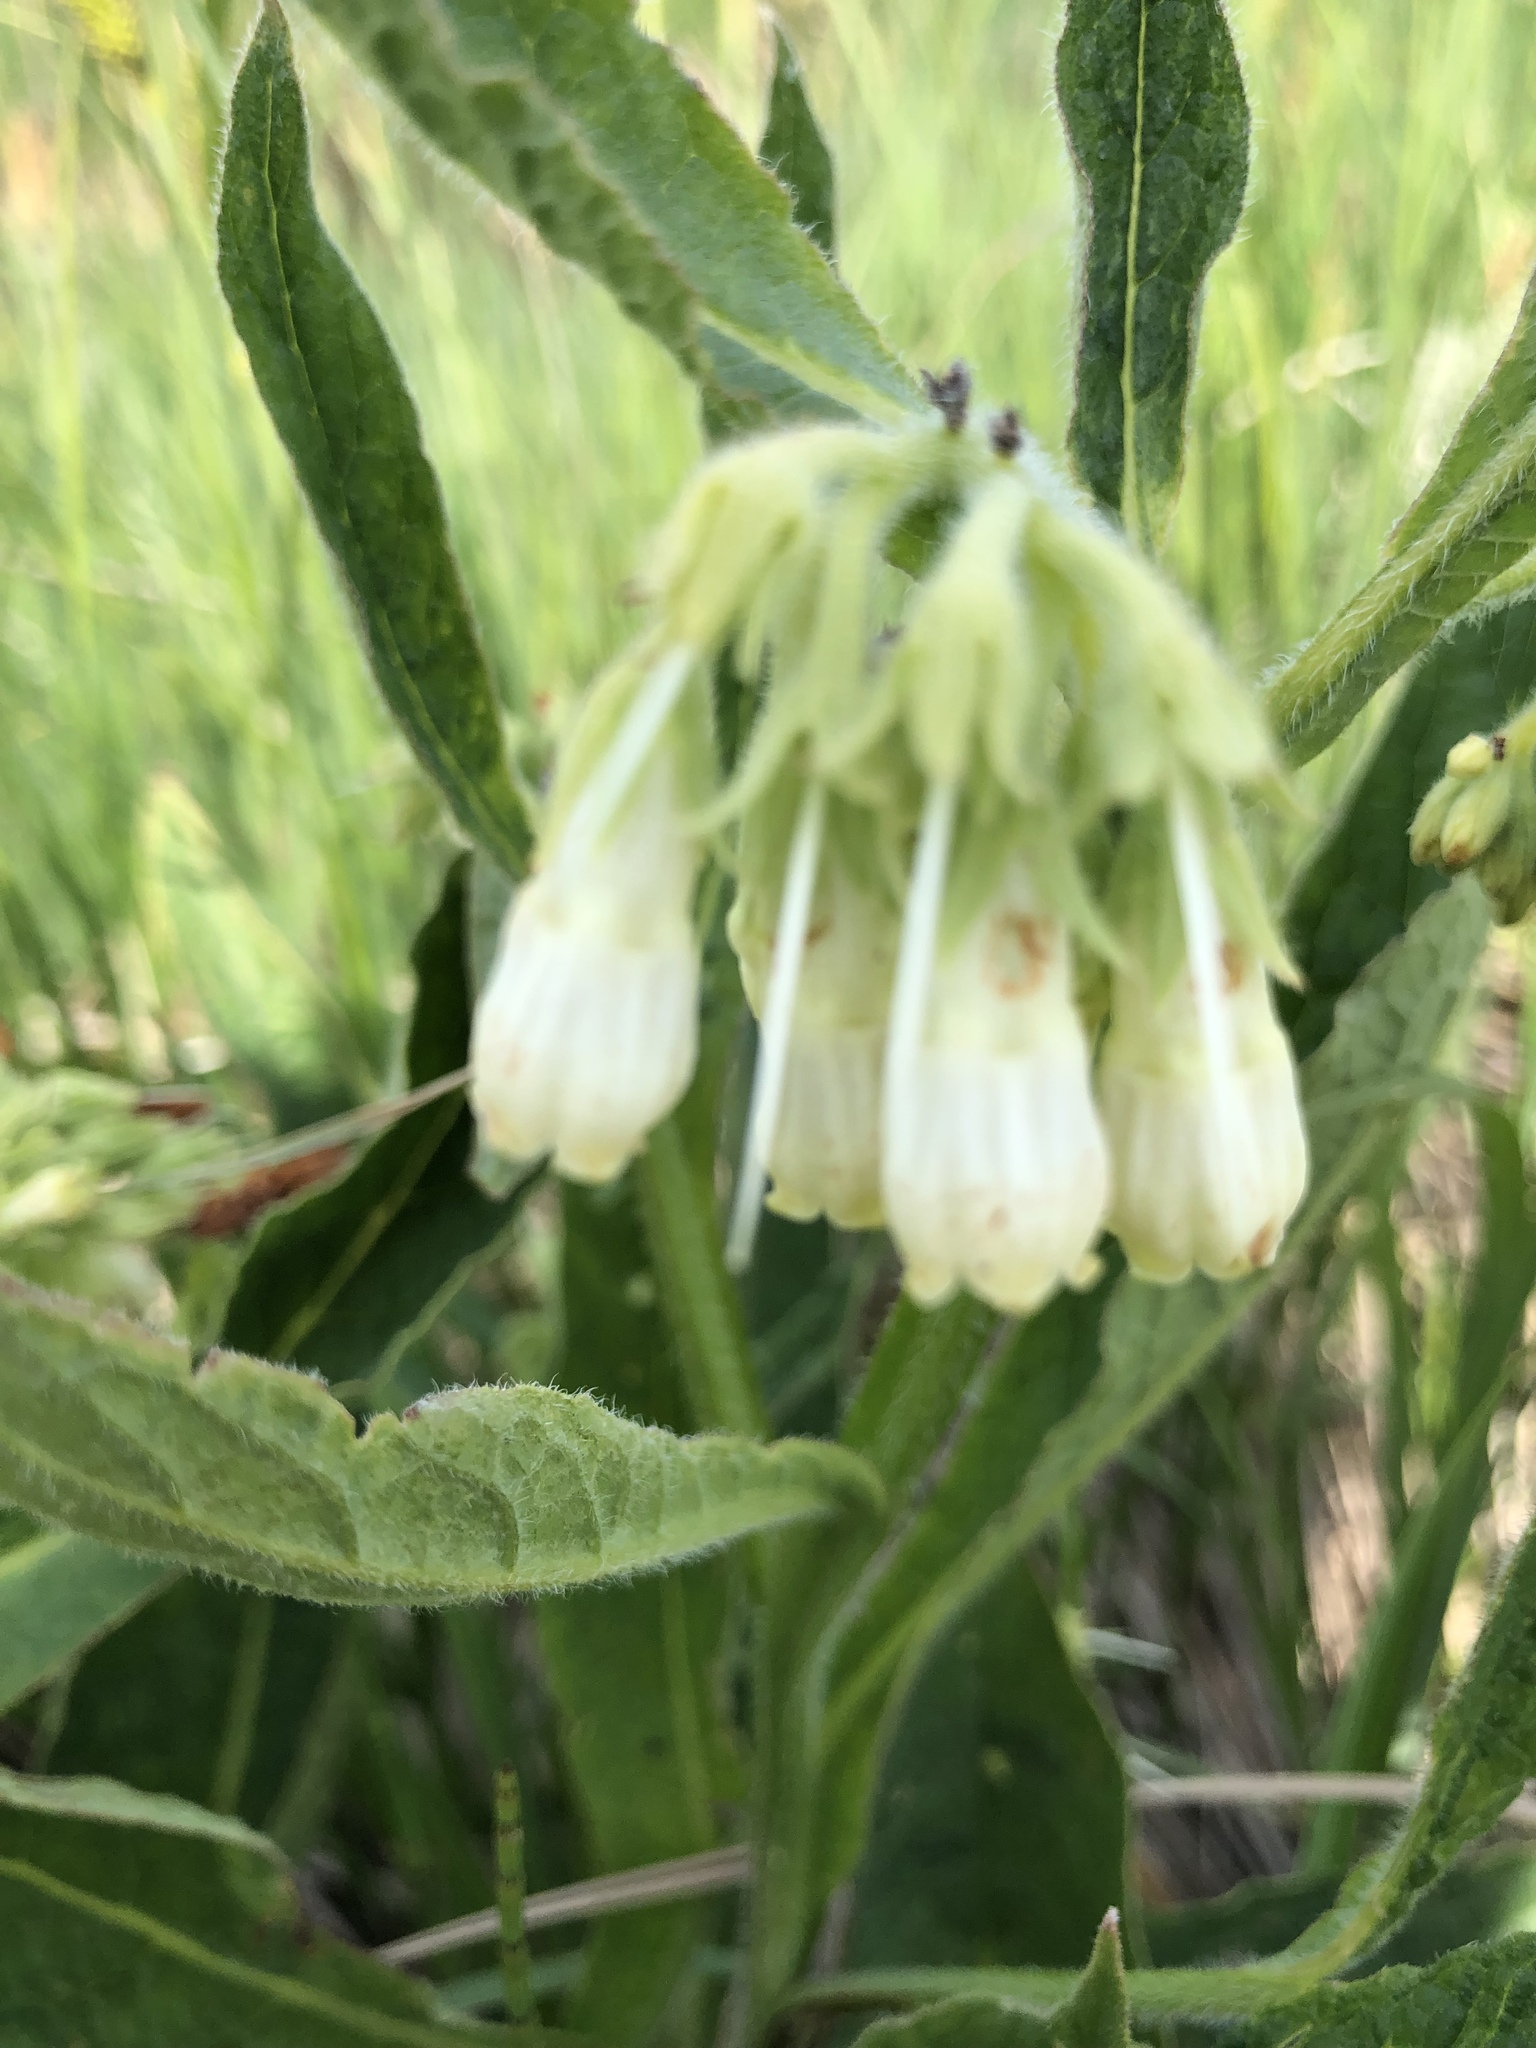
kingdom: Plantae
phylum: Tracheophyta
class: Magnoliopsida
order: Boraginales
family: Boraginaceae
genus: Symphytum
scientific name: Symphytum officinale
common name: Common comfrey
